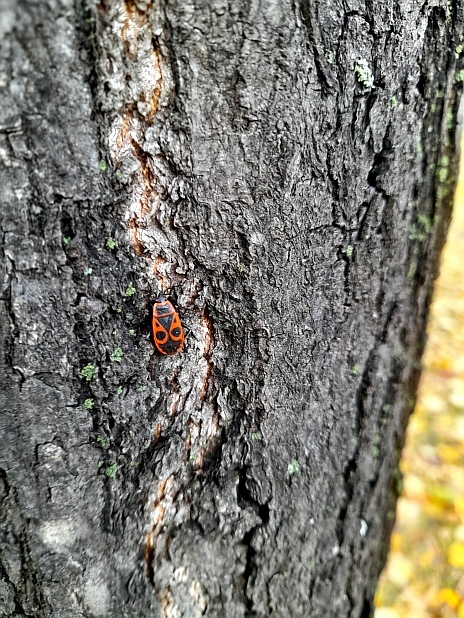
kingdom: Animalia
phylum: Arthropoda
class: Insecta
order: Hemiptera
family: Pyrrhocoridae
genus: Pyrrhocoris
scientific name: Pyrrhocoris apterus
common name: Firebug
